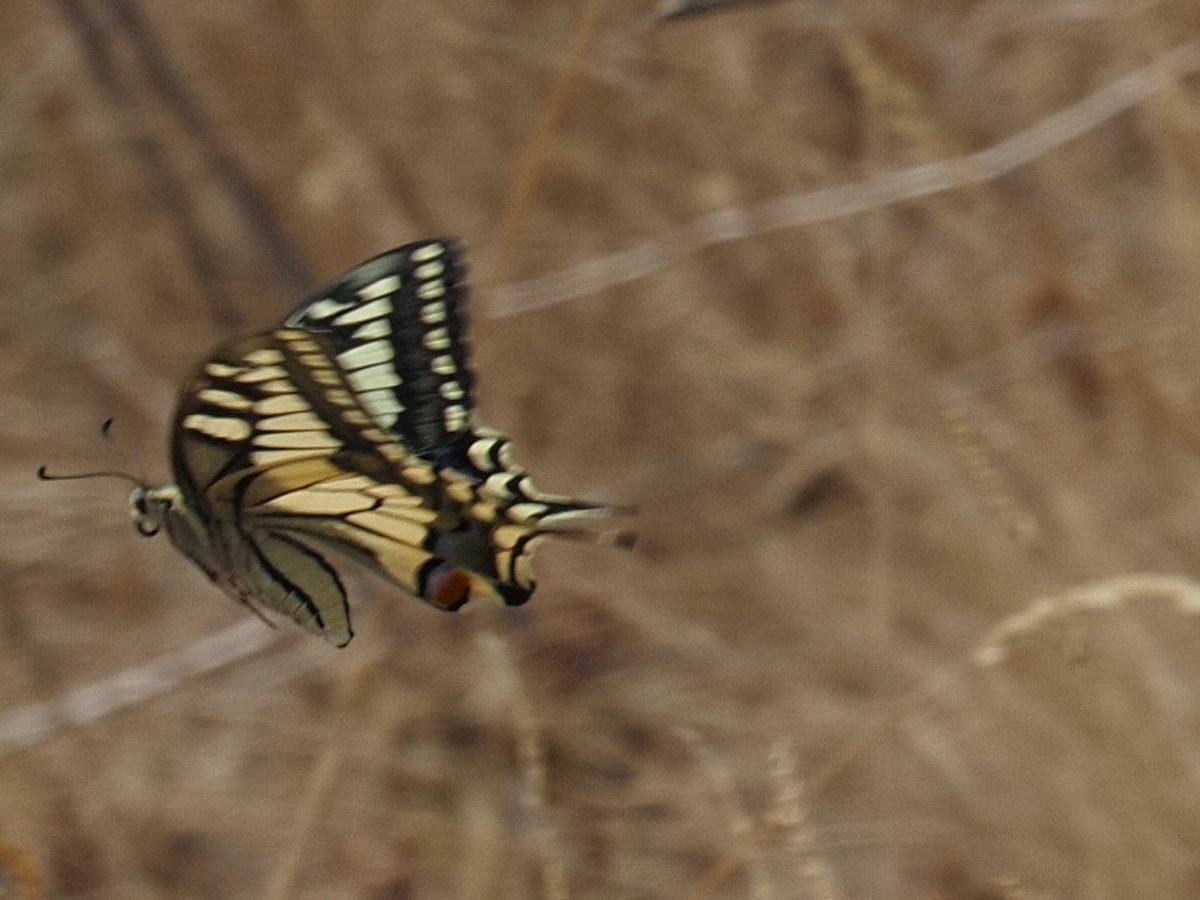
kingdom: Animalia
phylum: Arthropoda
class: Insecta
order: Lepidoptera
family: Papilionidae
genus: Papilio
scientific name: Papilio machaon
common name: Swallowtail
